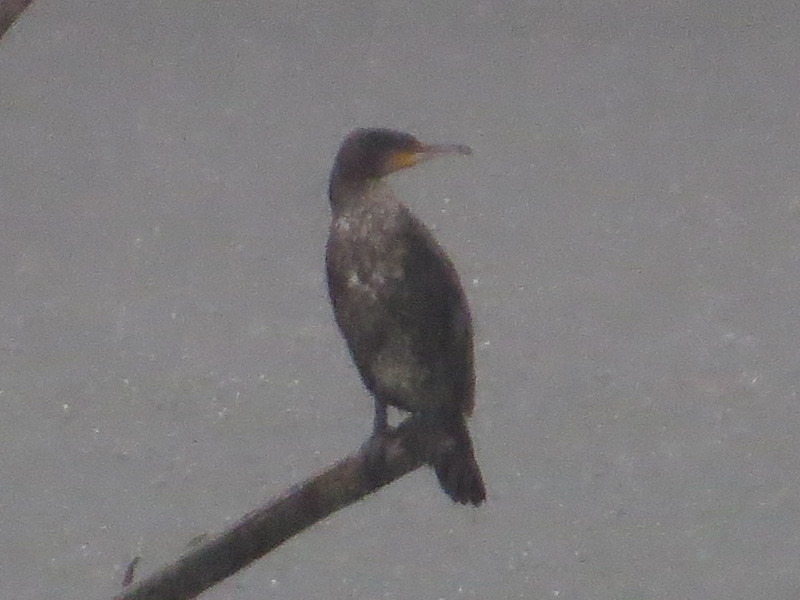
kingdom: Animalia
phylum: Chordata
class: Aves
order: Suliformes
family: Phalacrocoracidae
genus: Phalacrocorax
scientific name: Phalacrocorax carbo
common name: Great cormorant
